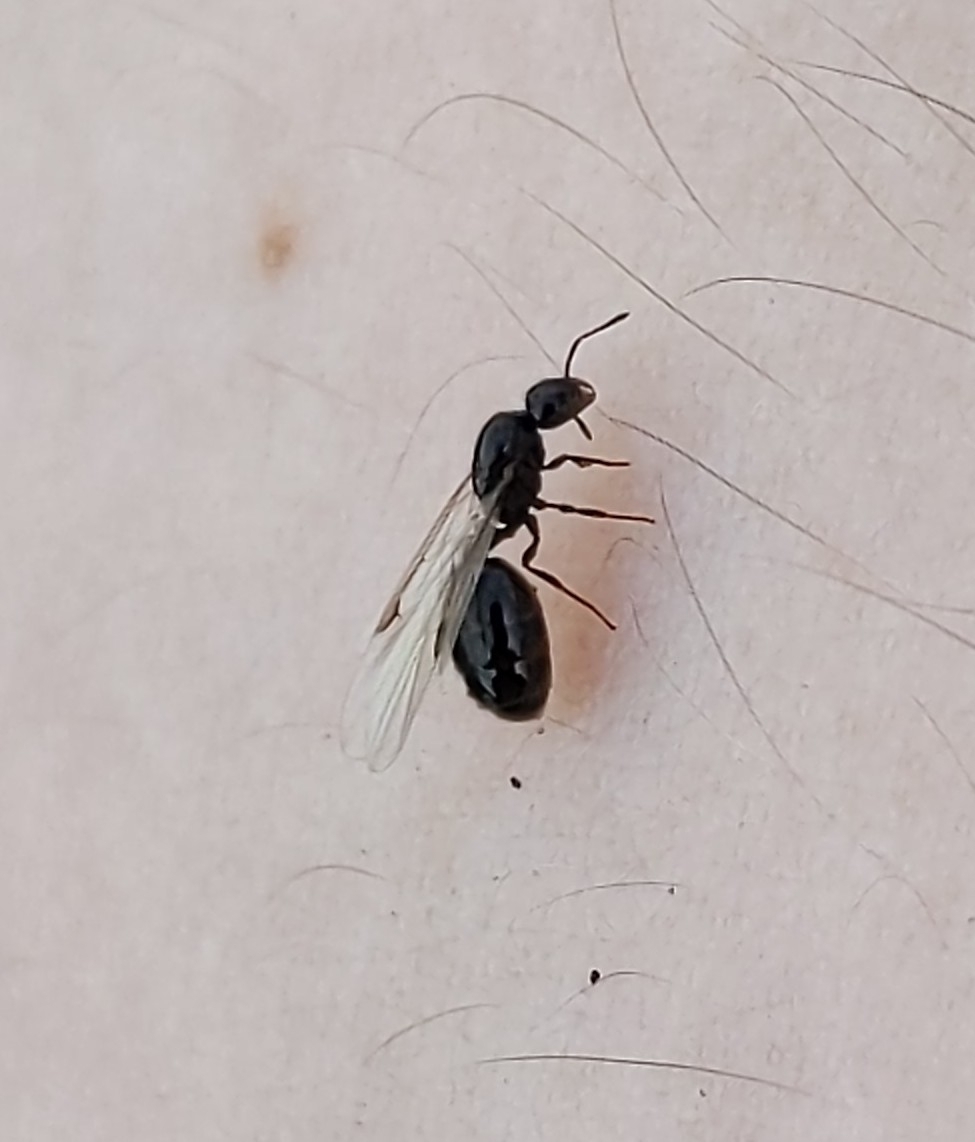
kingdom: Animalia
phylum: Arthropoda
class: Insecta
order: Hymenoptera
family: Formicidae
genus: Monomorium
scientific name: Monomorium minimum
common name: Little black ant
